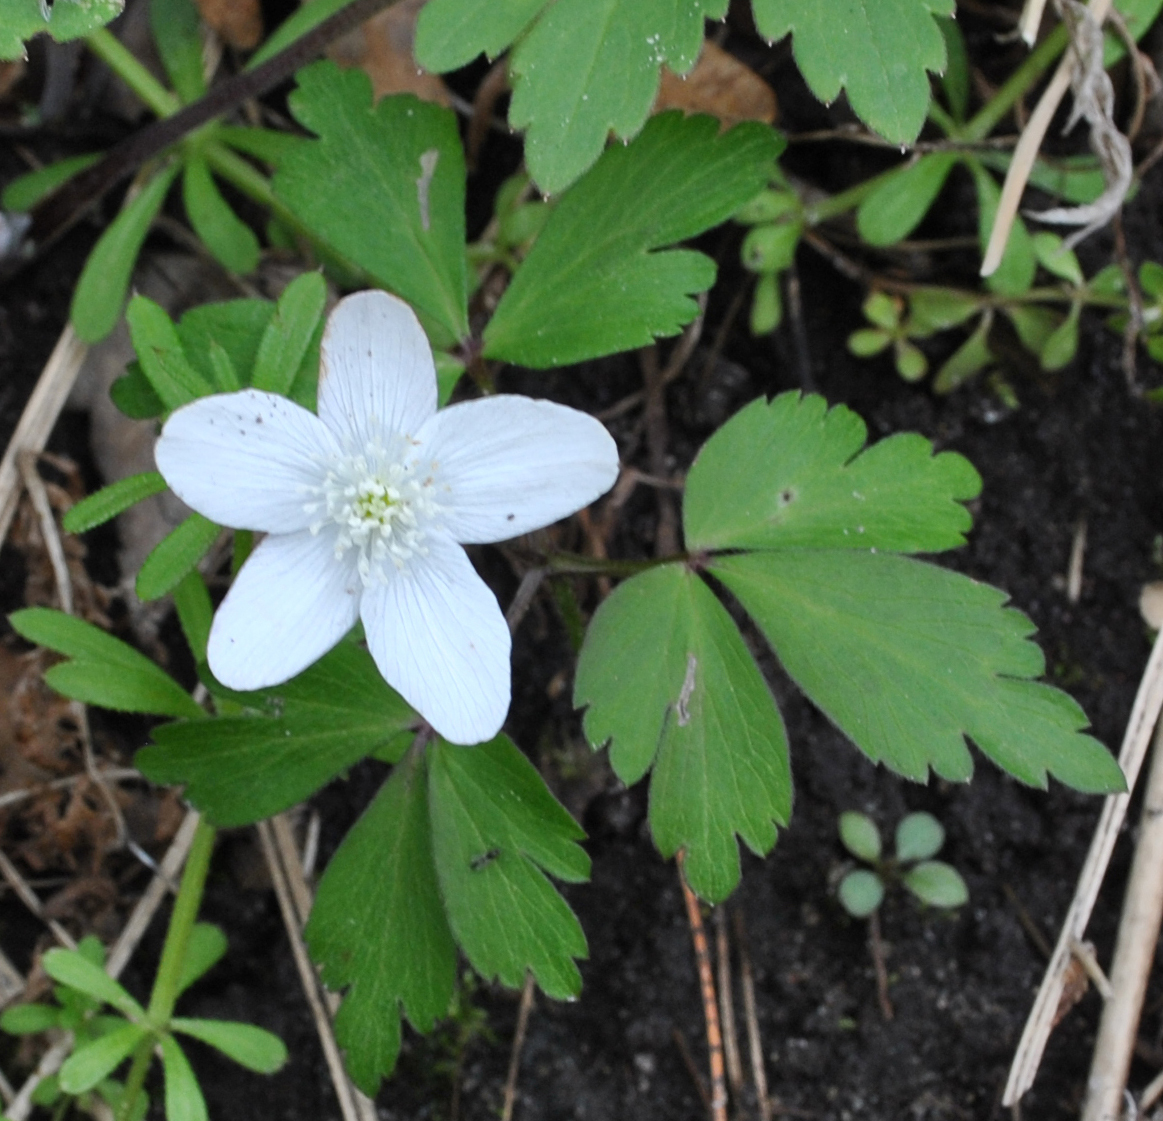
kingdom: Plantae
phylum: Tracheophyta
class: Magnoliopsida
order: Ranunculales
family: Ranunculaceae
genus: Anemone
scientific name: Anemone quinquefolia
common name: Wood anemone
